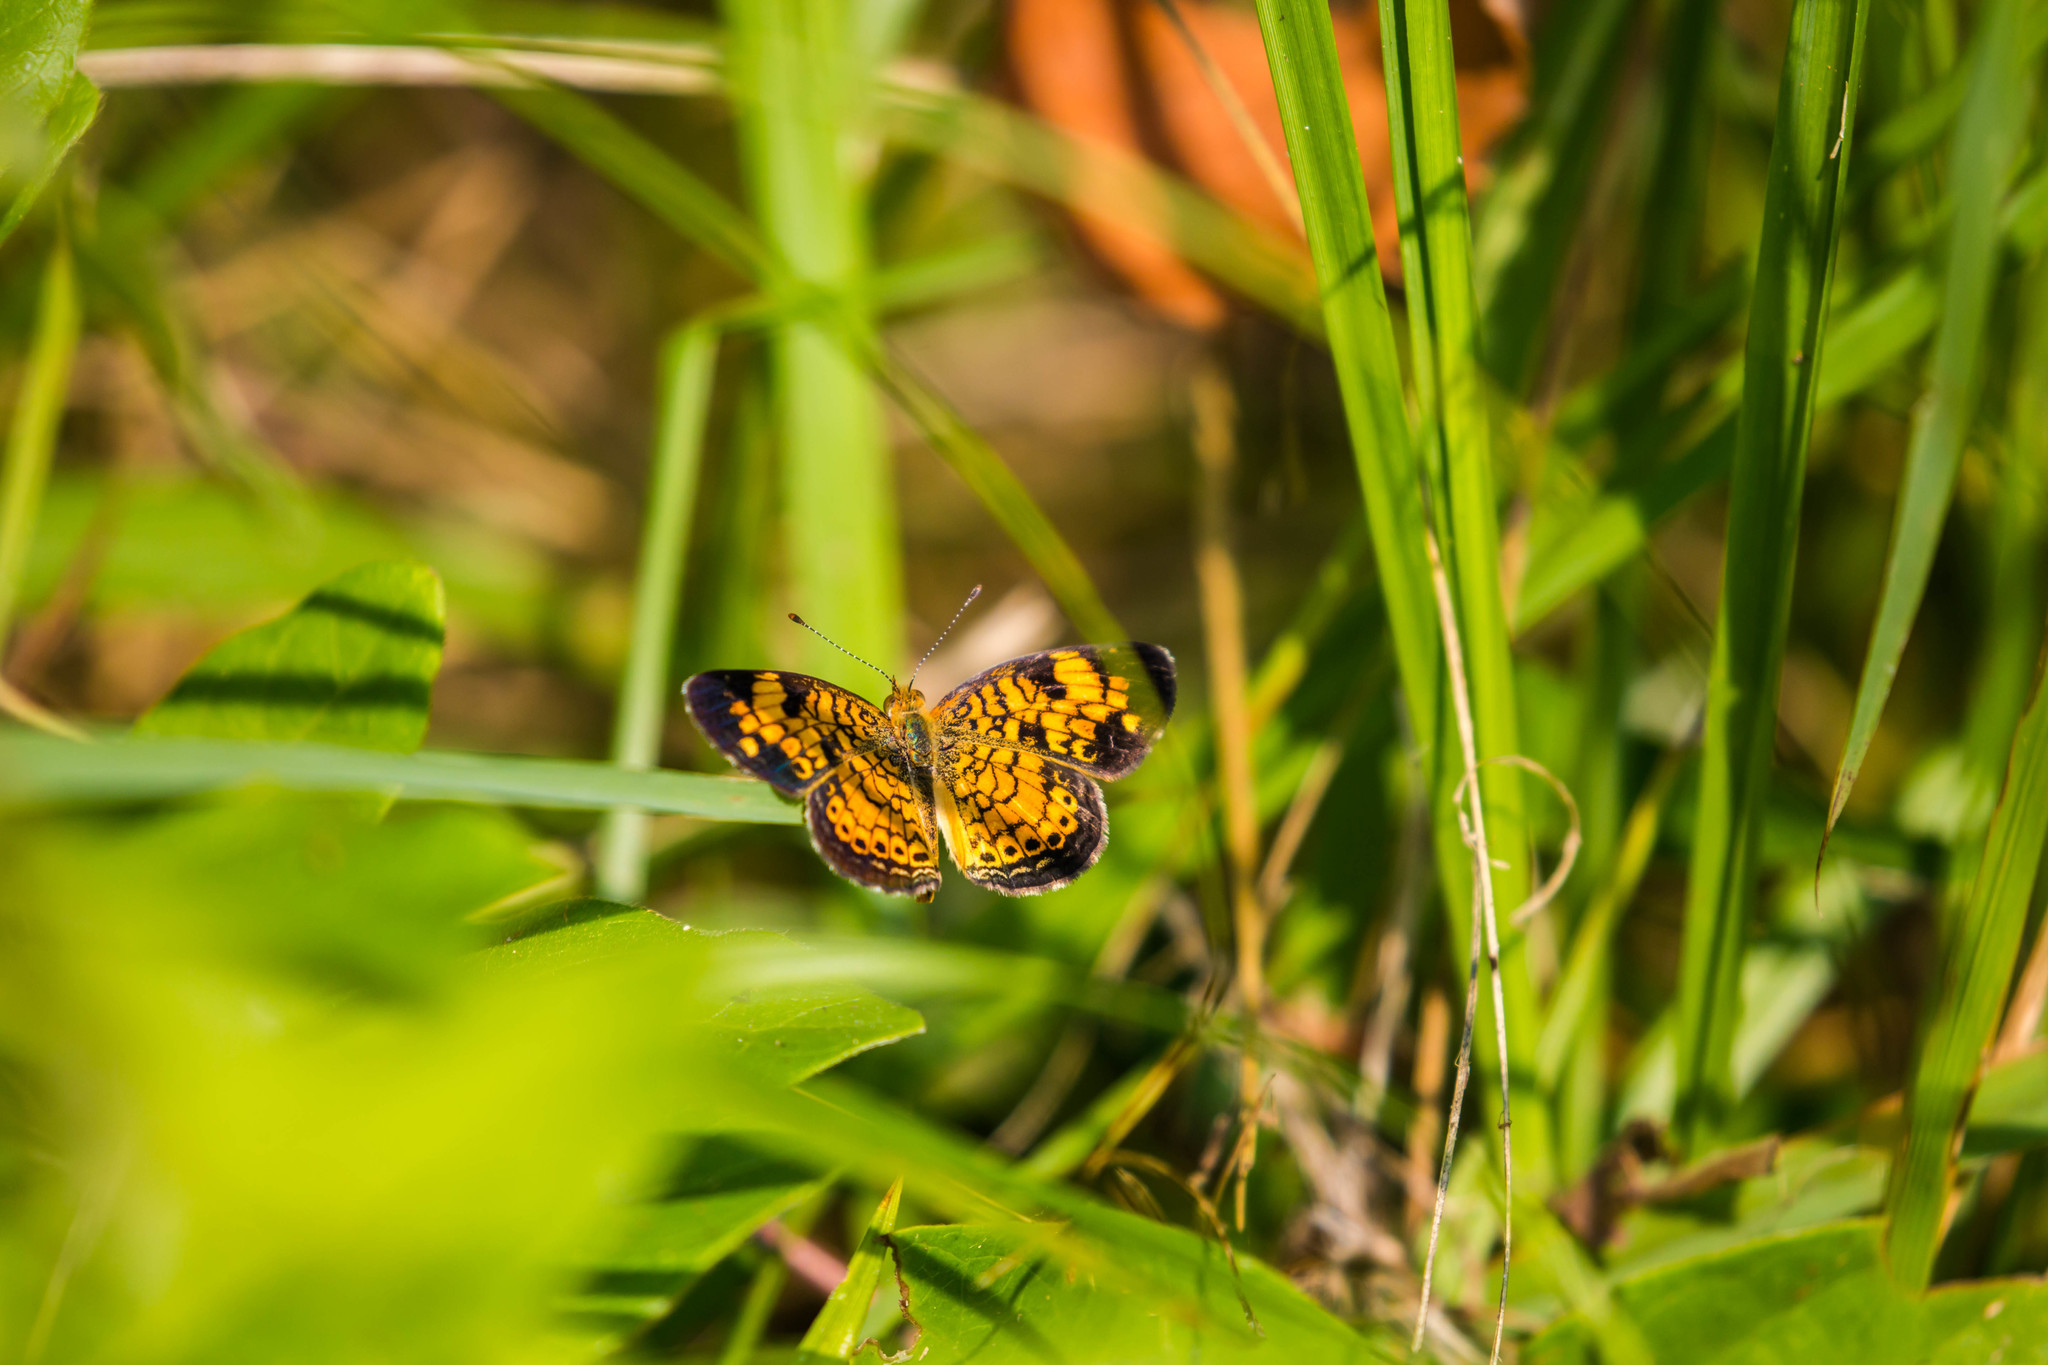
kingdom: Animalia
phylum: Arthropoda
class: Insecta
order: Lepidoptera
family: Nymphalidae
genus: Phyciodes
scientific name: Phyciodes tharos
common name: Pearl crescent
